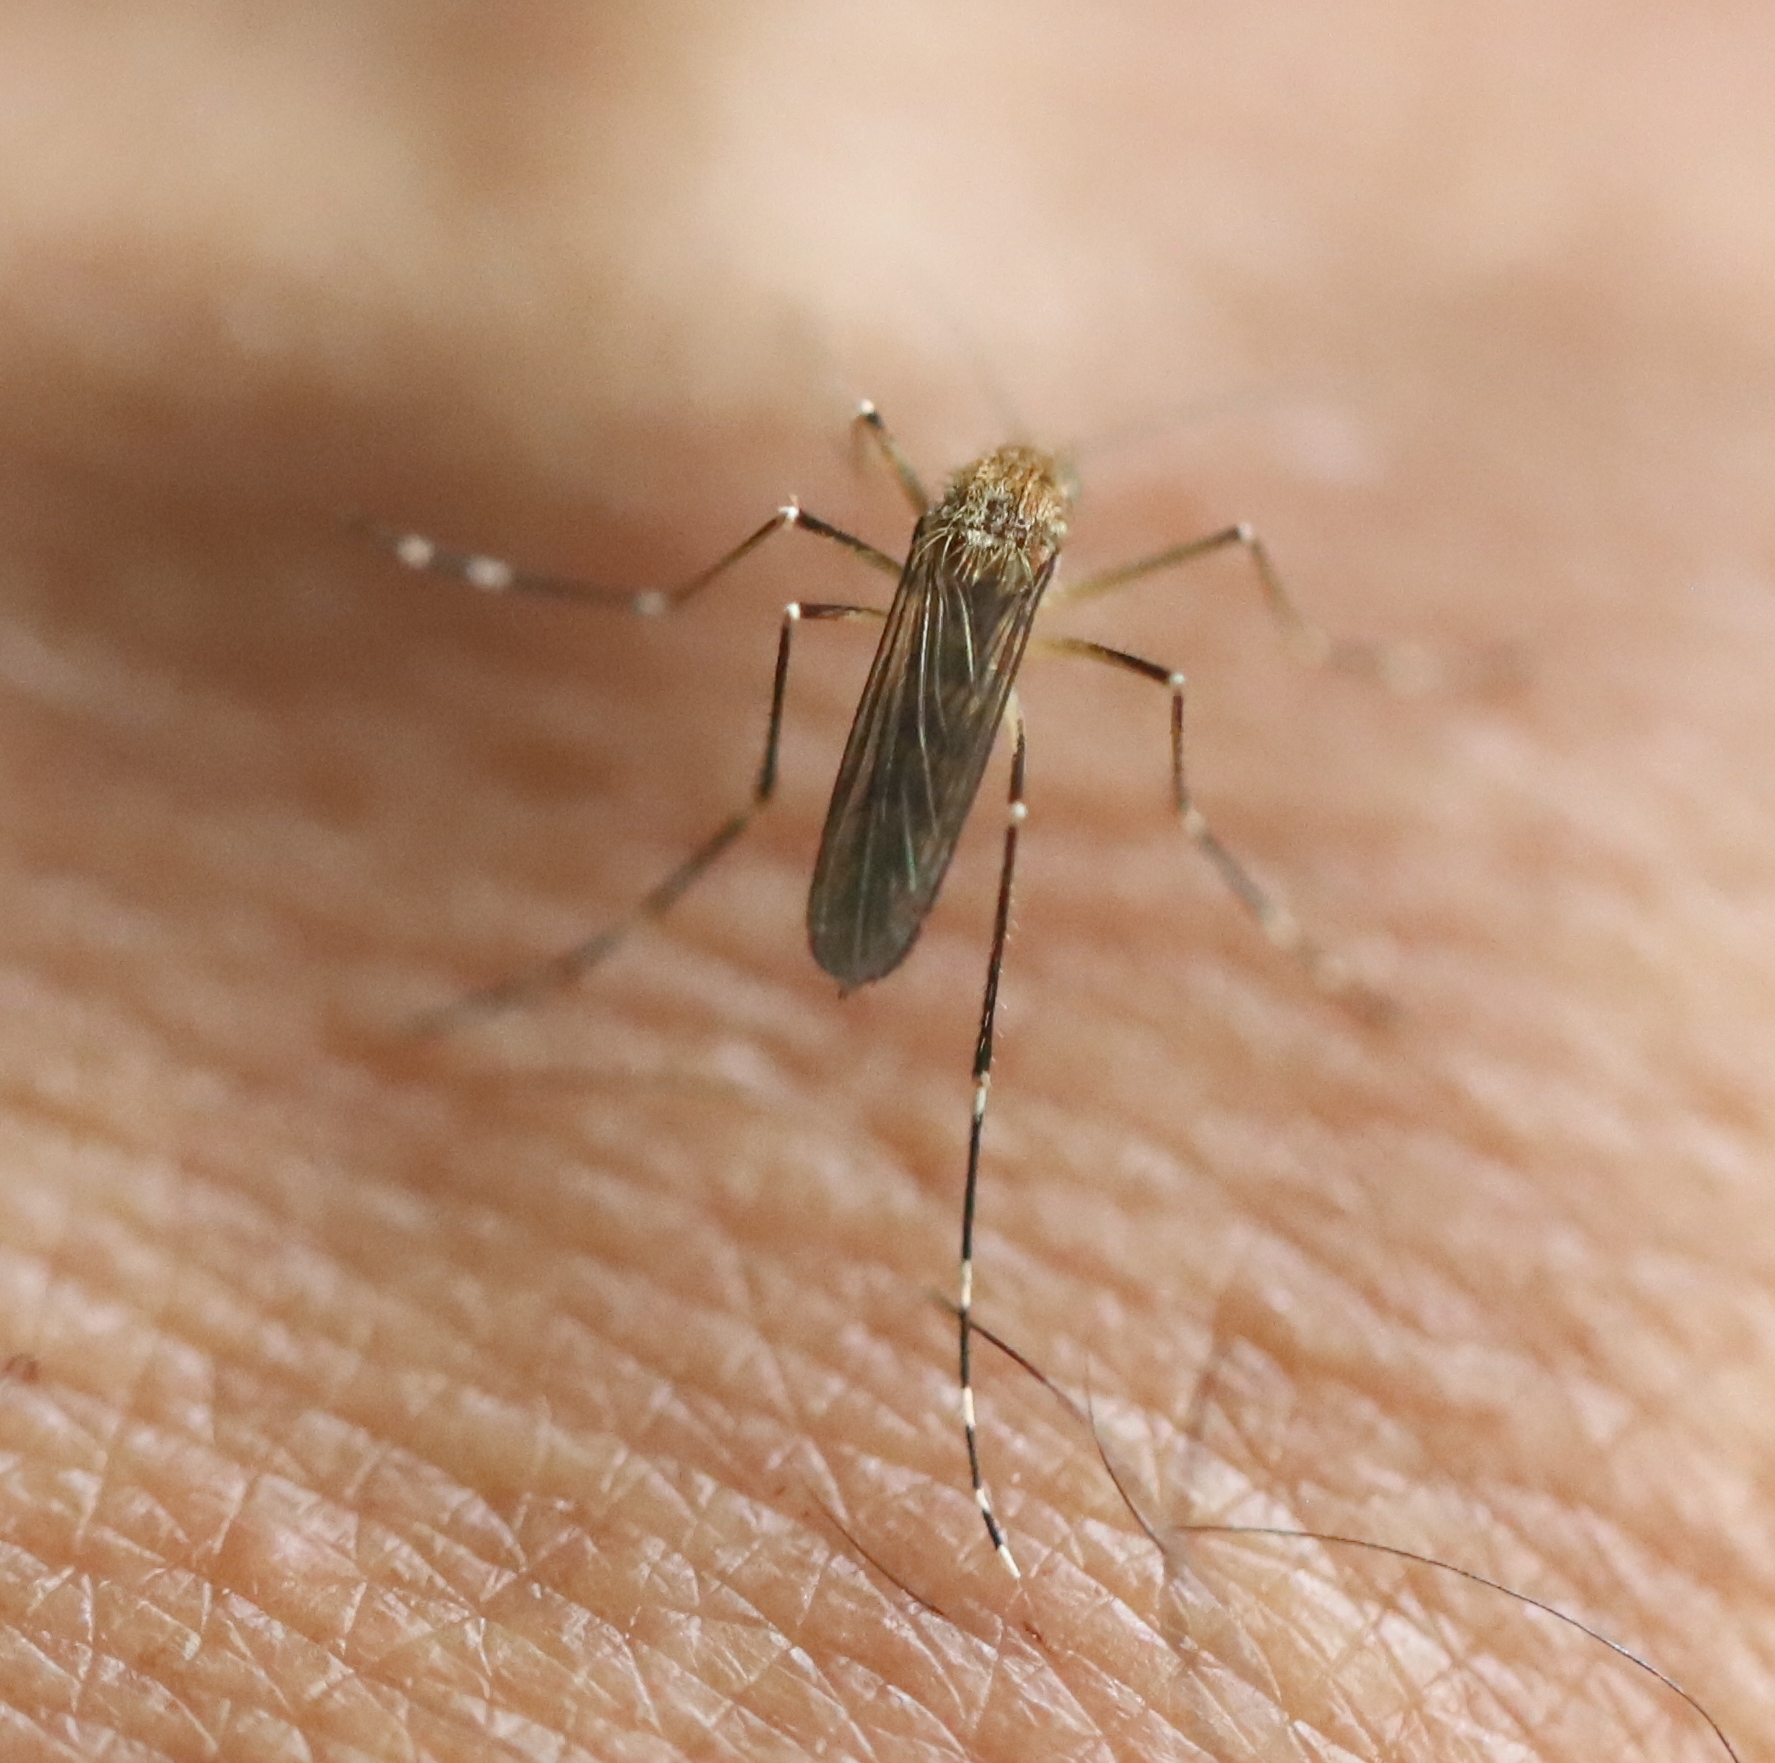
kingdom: Animalia
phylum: Arthropoda
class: Insecta
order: Diptera
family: Culicidae
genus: Aedes
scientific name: Aedes canadensis
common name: Woodland pool mosquito
